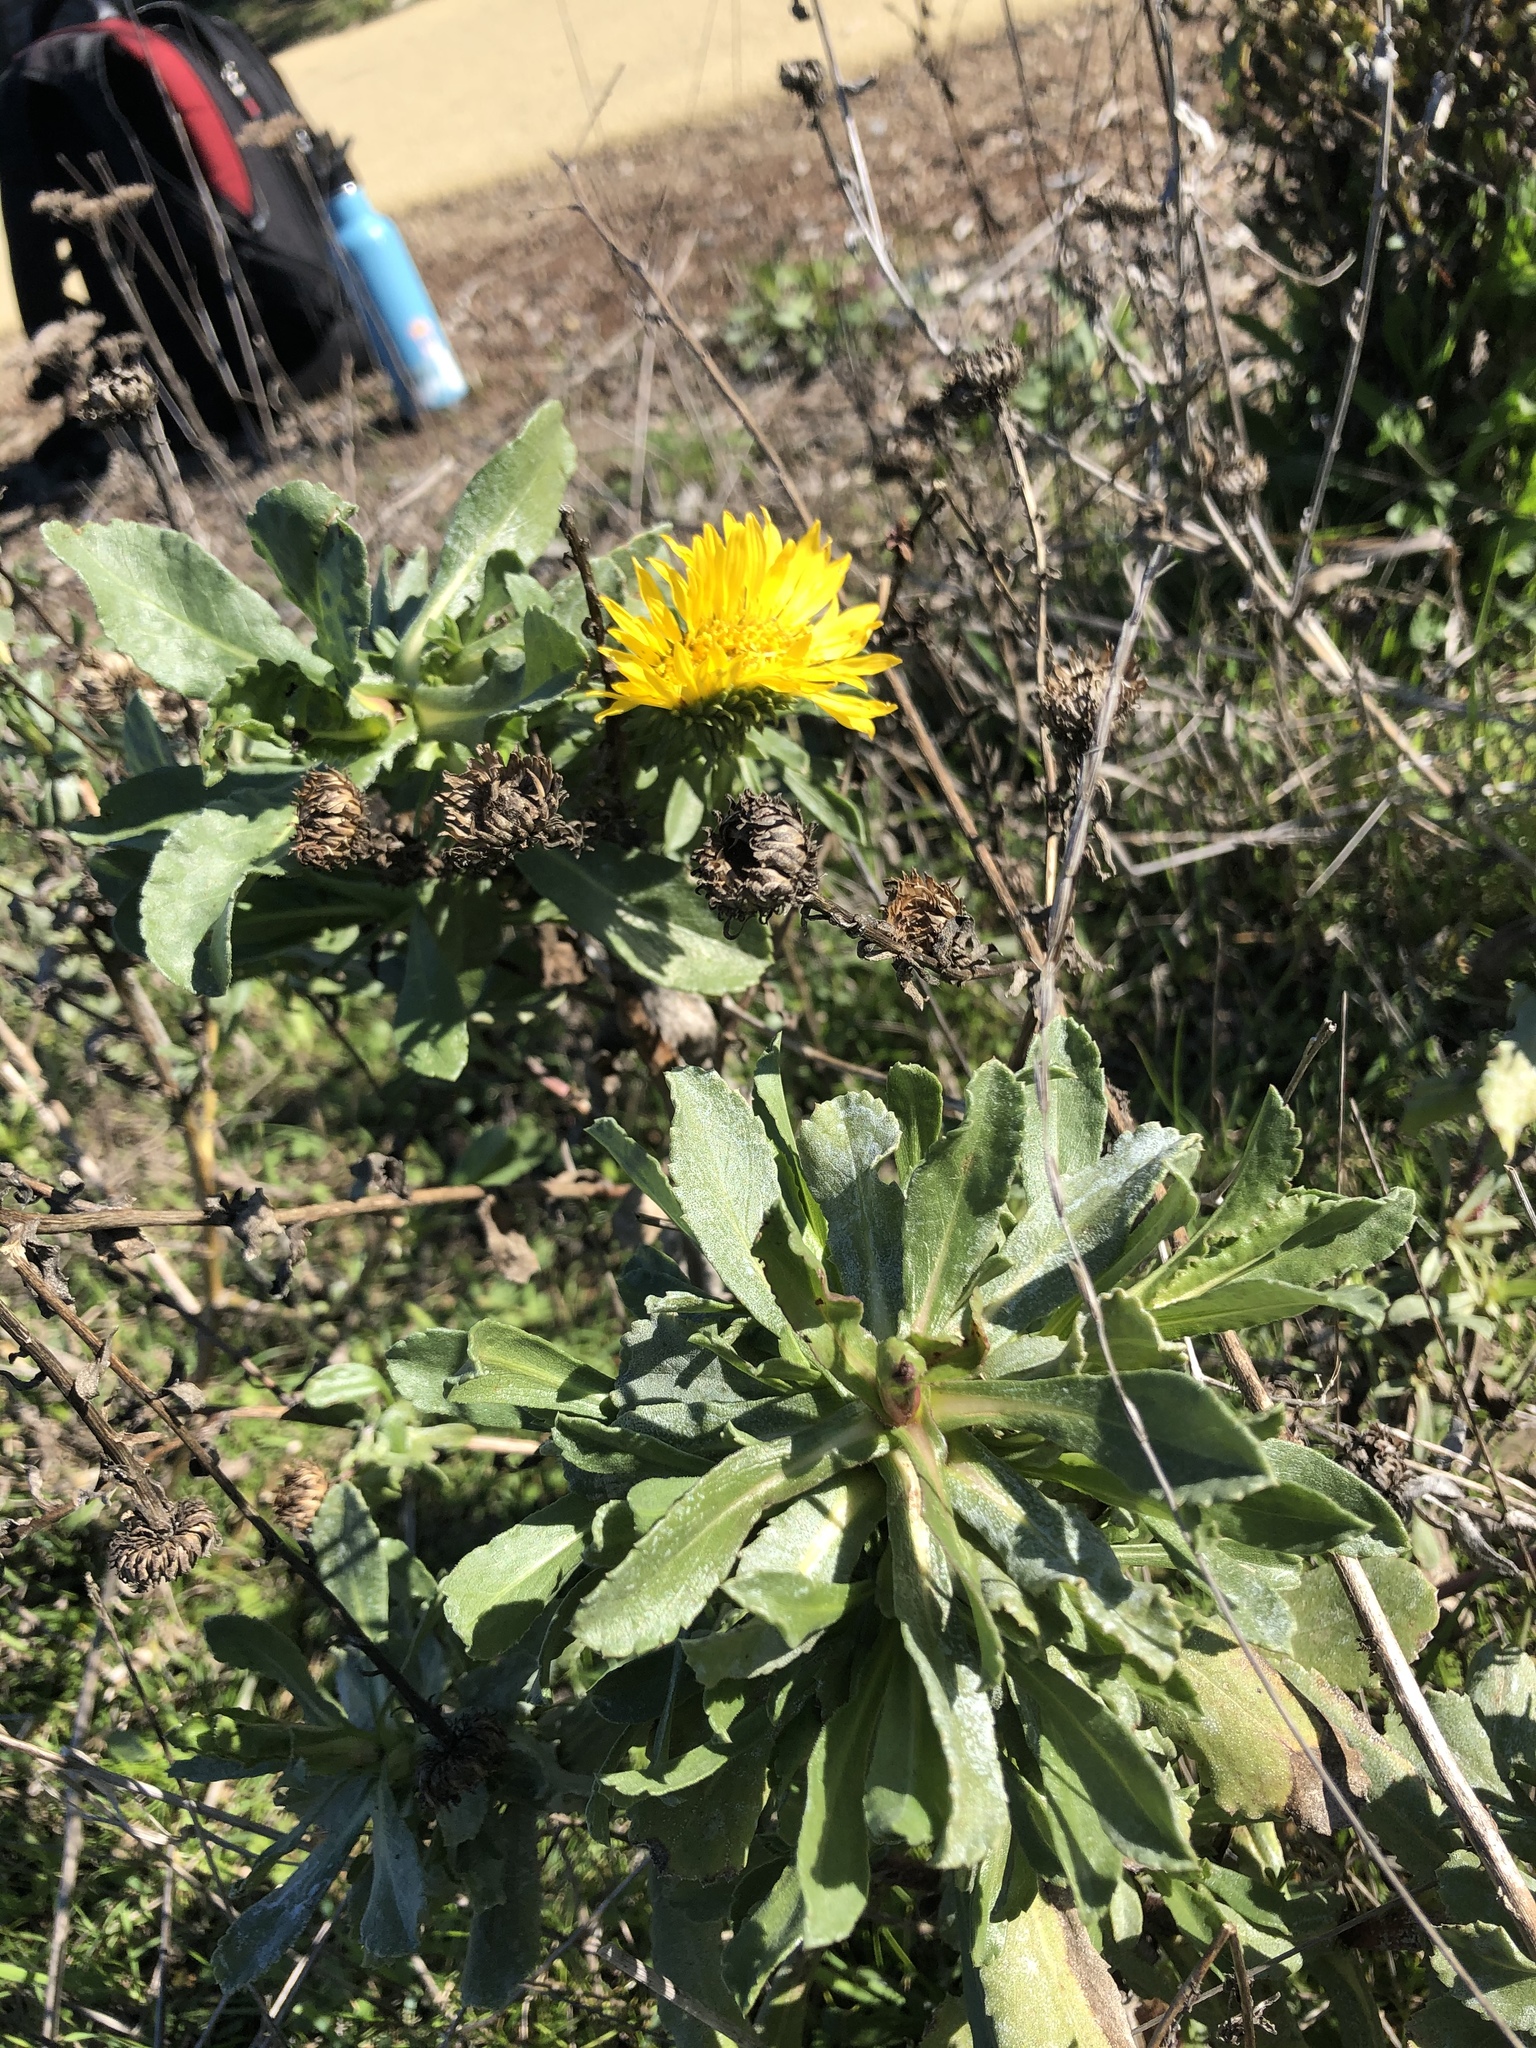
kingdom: Plantae
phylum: Tracheophyta
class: Magnoliopsida
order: Asterales
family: Asteraceae
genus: Grindelia
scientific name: Grindelia hirsutula
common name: Hairy gumweed
